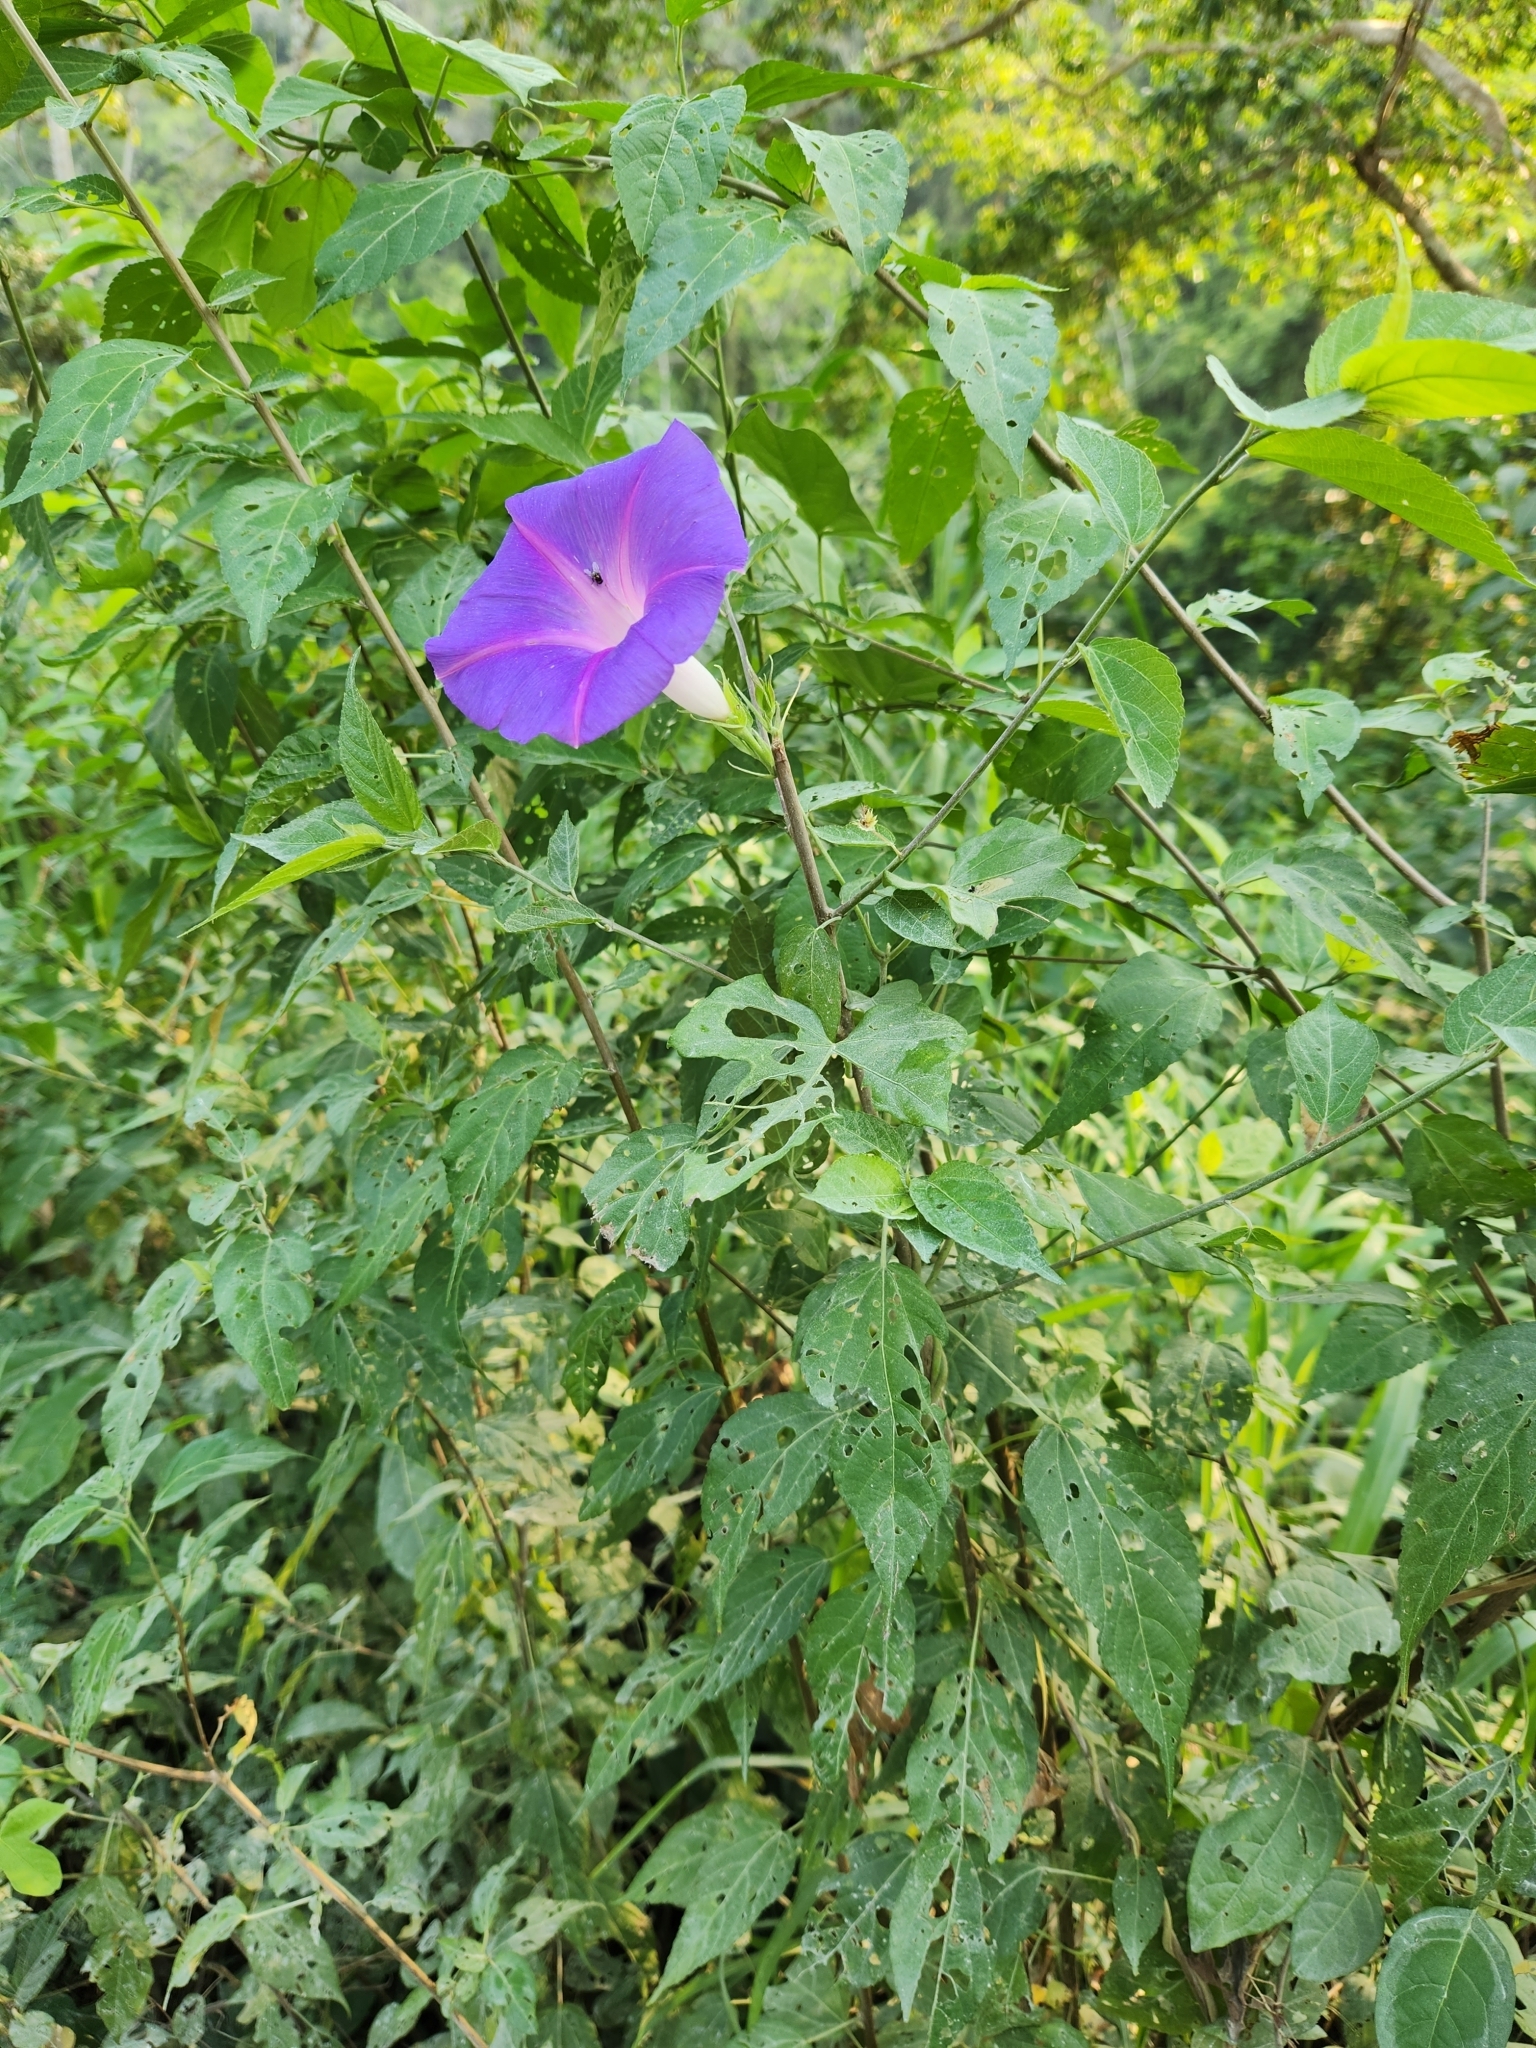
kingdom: Plantae
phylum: Tracheophyta
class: Magnoliopsida
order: Solanales
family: Convolvulaceae
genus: Ipomoea
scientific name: Ipomoea indica
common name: Blue dawnflower
